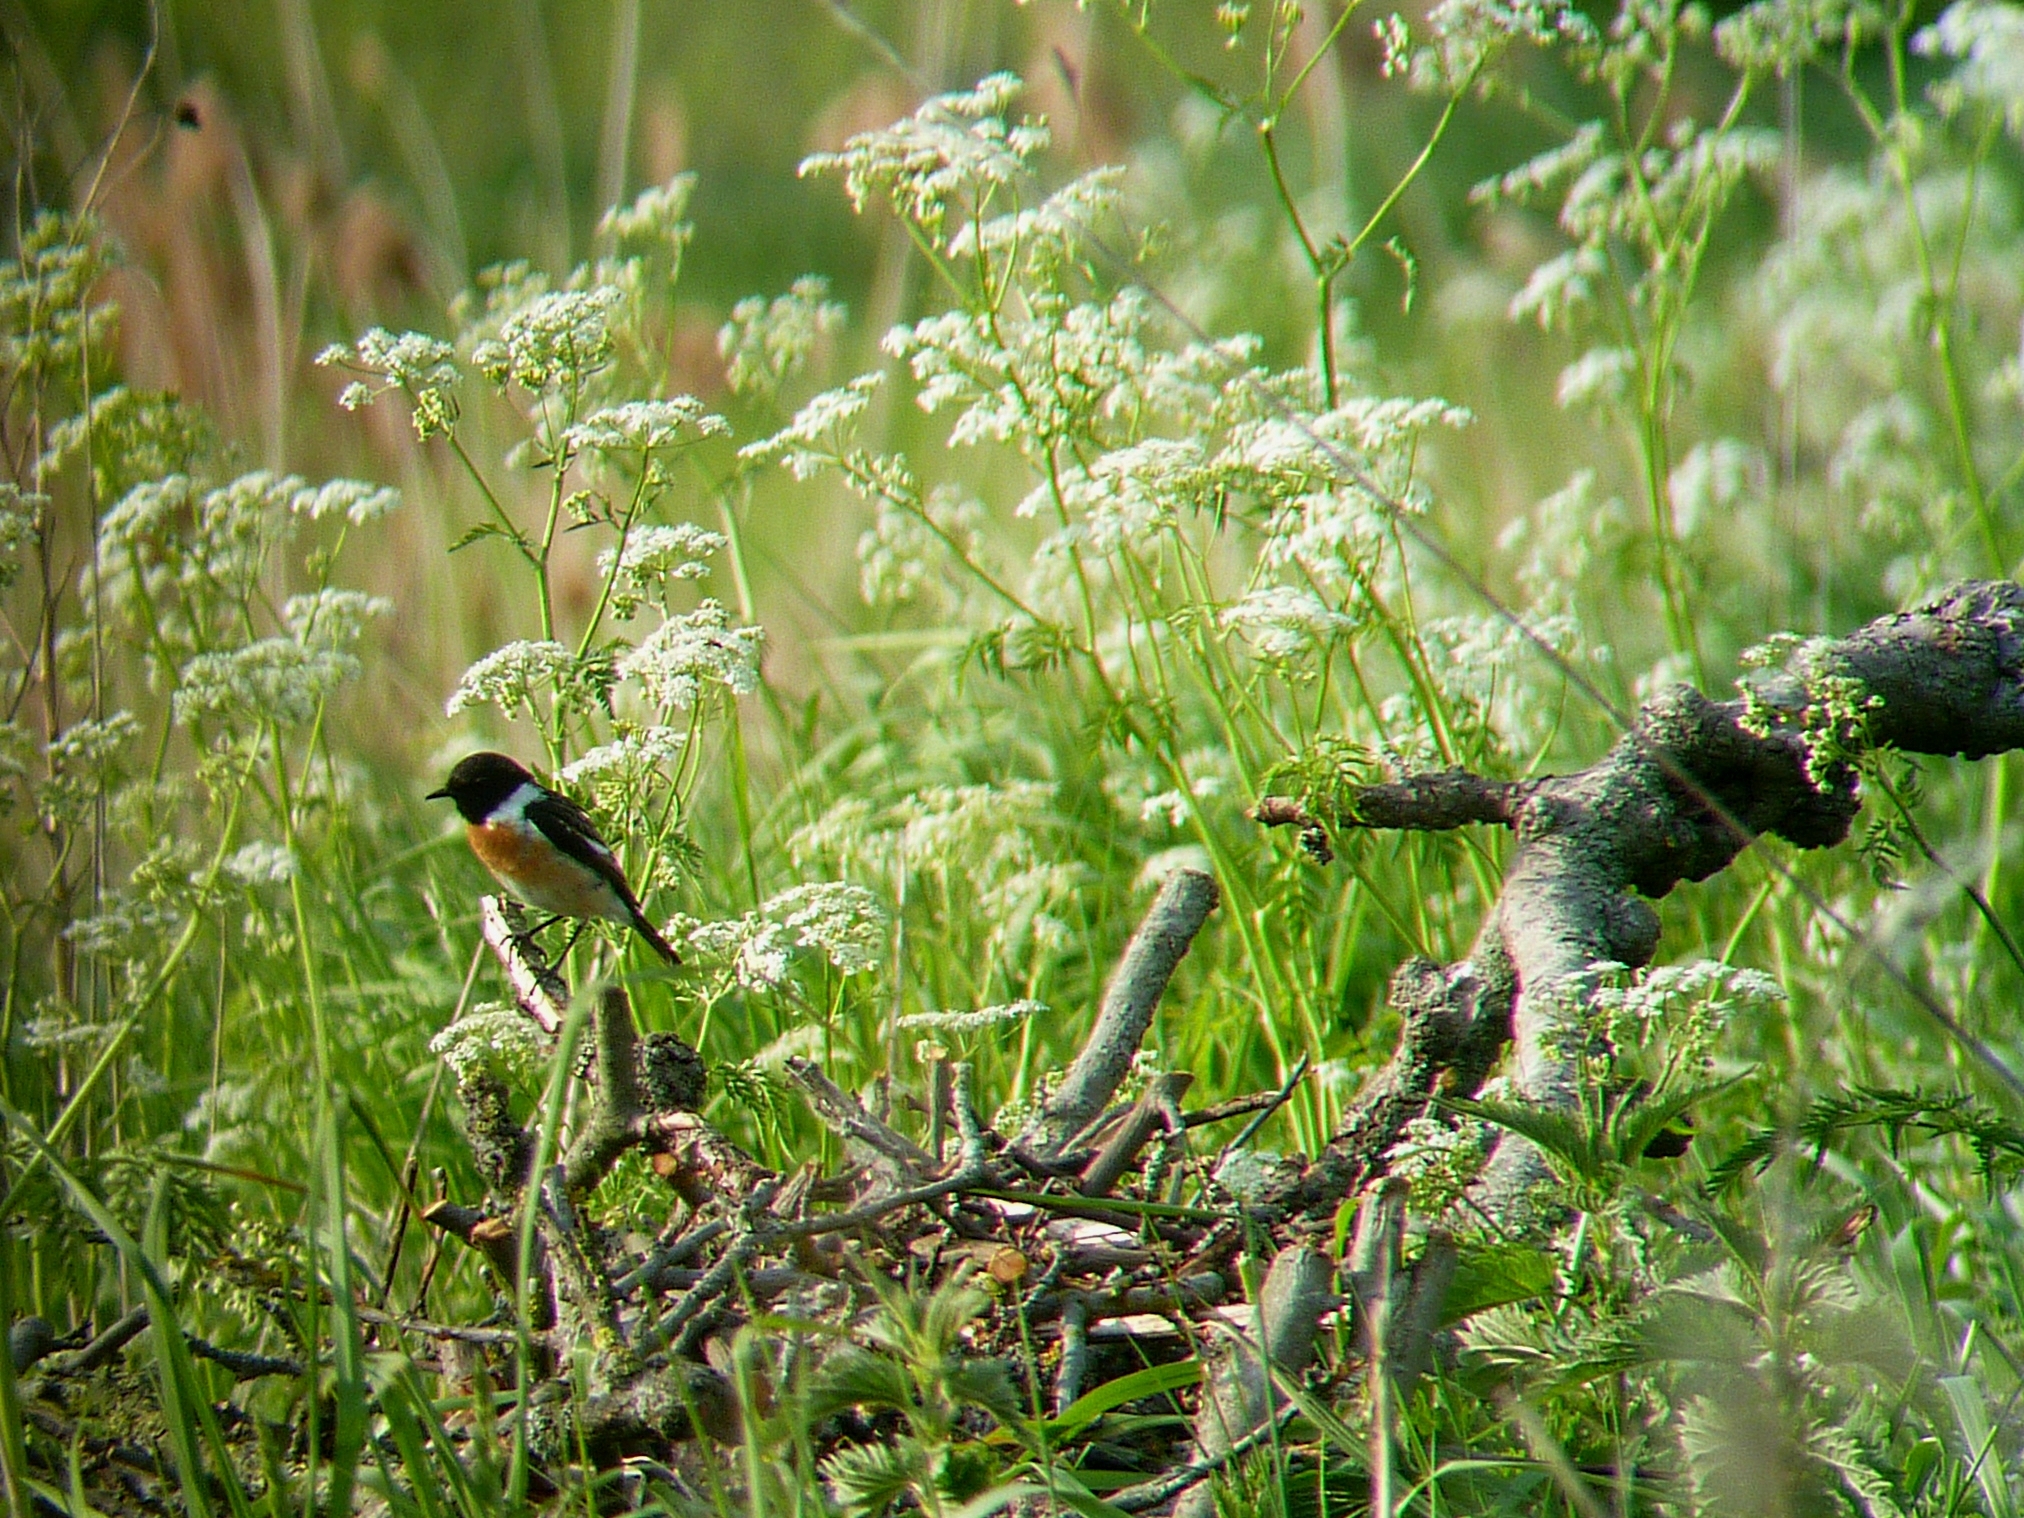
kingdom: Animalia
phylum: Chordata
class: Aves
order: Passeriformes
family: Muscicapidae
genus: Saxicola
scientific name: Saxicola rubicola
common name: European stonechat
